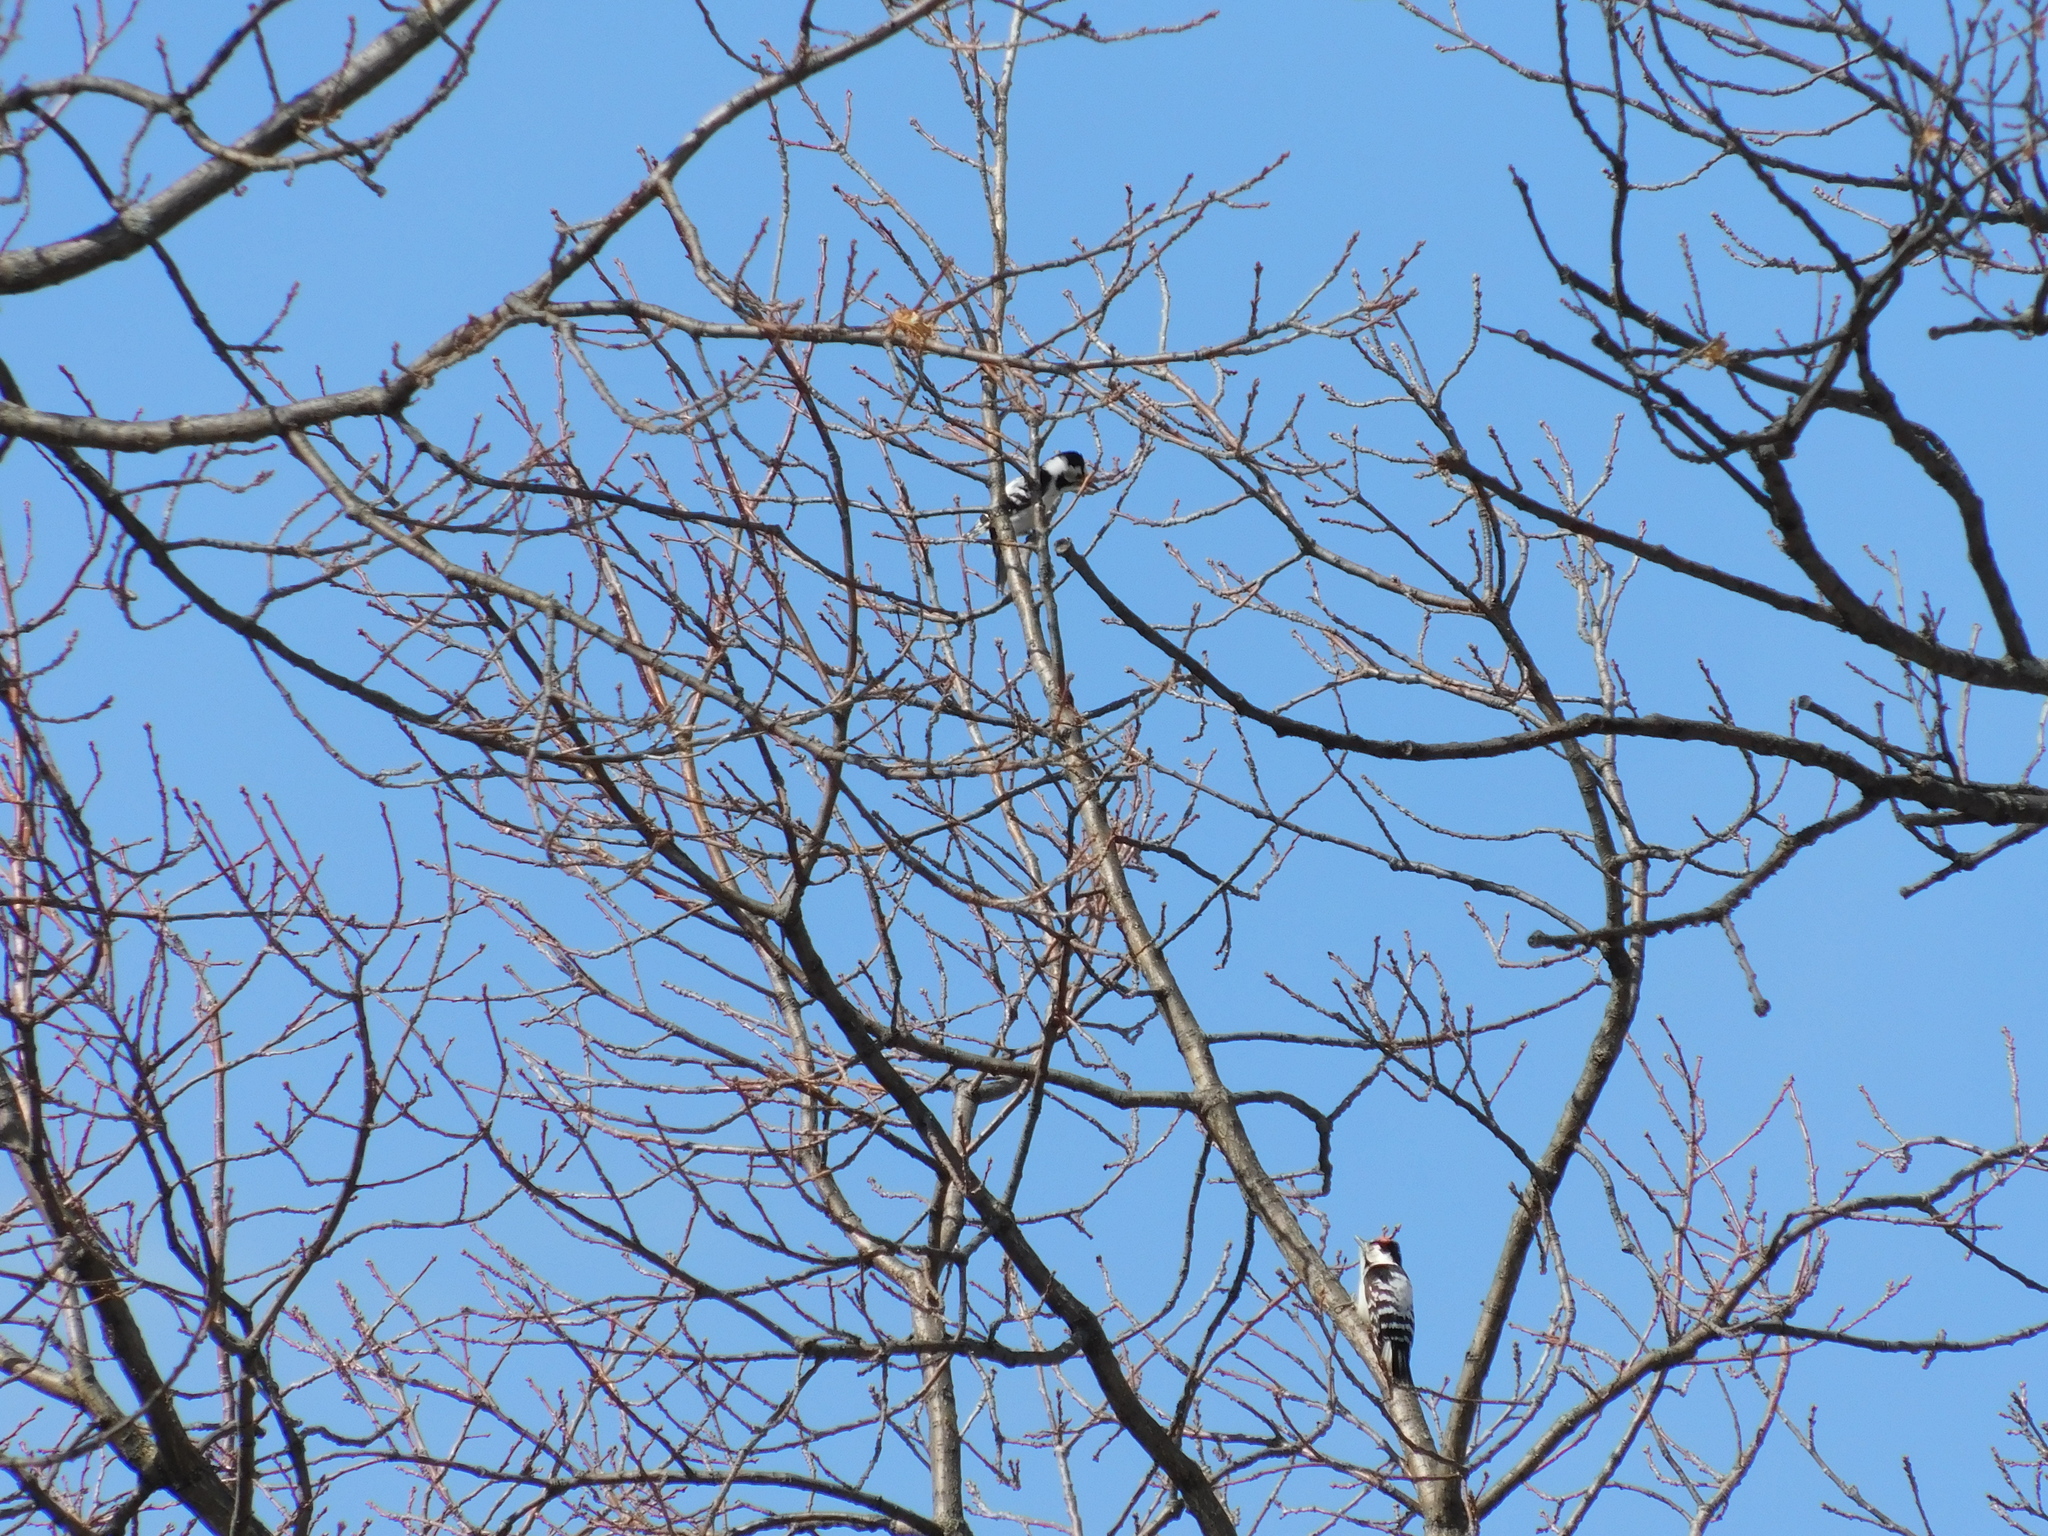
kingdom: Animalia
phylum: Chordata
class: Aves
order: Piciformes
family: Picidae
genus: Dryobates
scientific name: Dryobates minor
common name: Lesser spotted woodpecker
